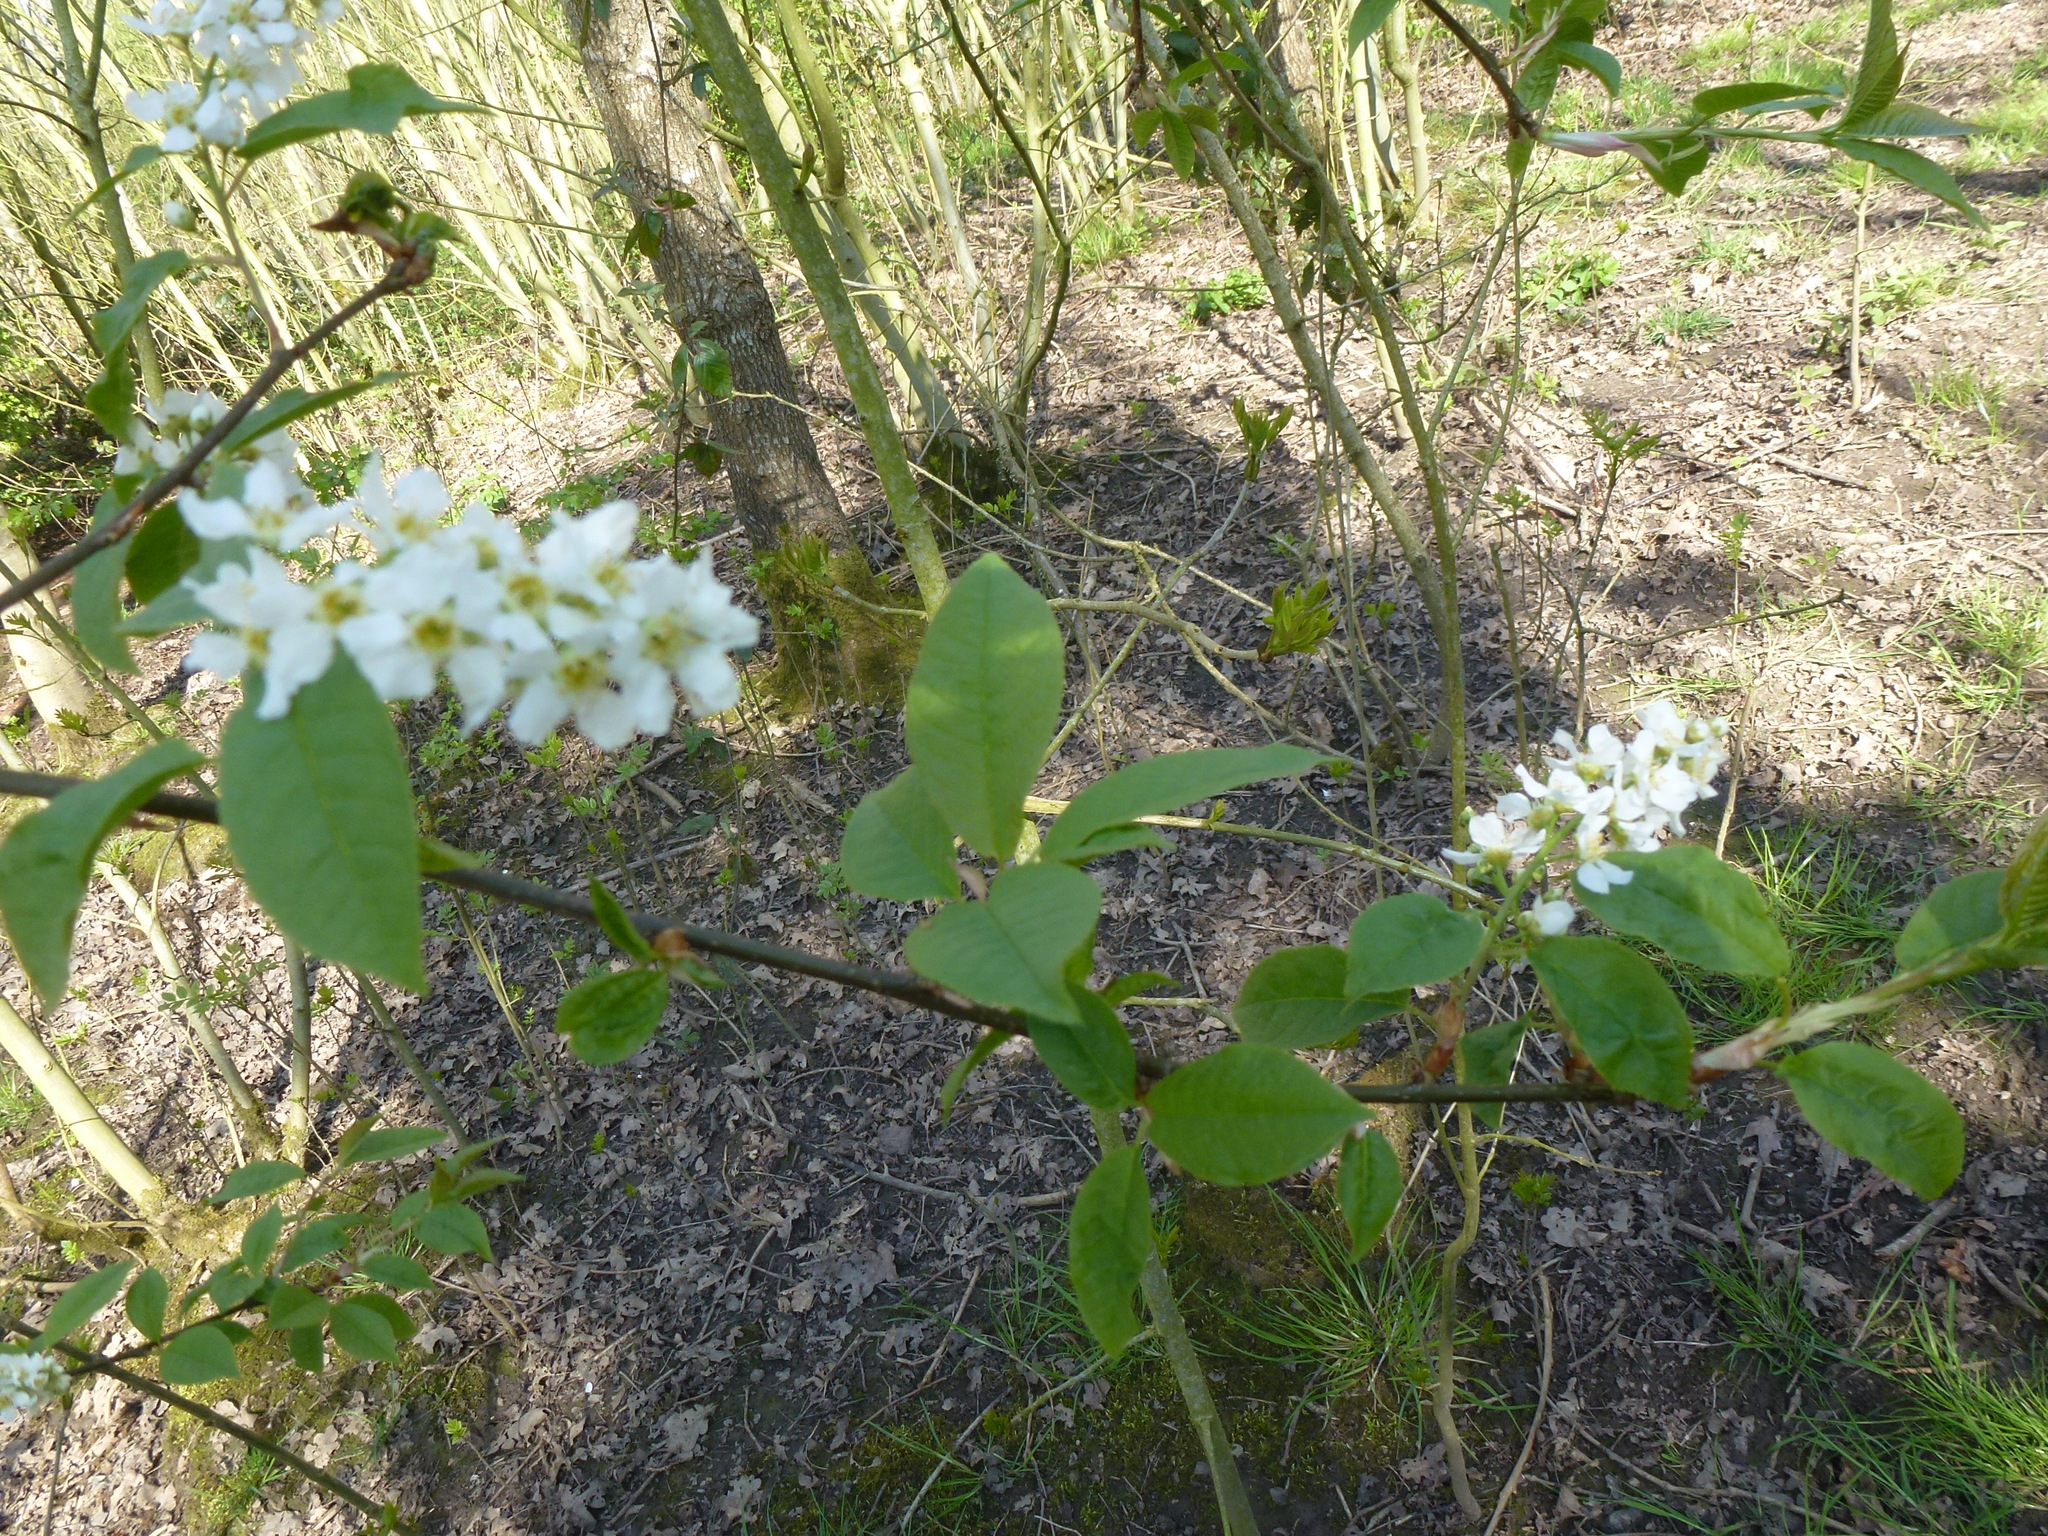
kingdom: Plantae
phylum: Tracheophyta
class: Magnoliopsida
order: Rosales
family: Rosaceae
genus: Prunus
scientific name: Prunus padus
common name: Bird cherry
